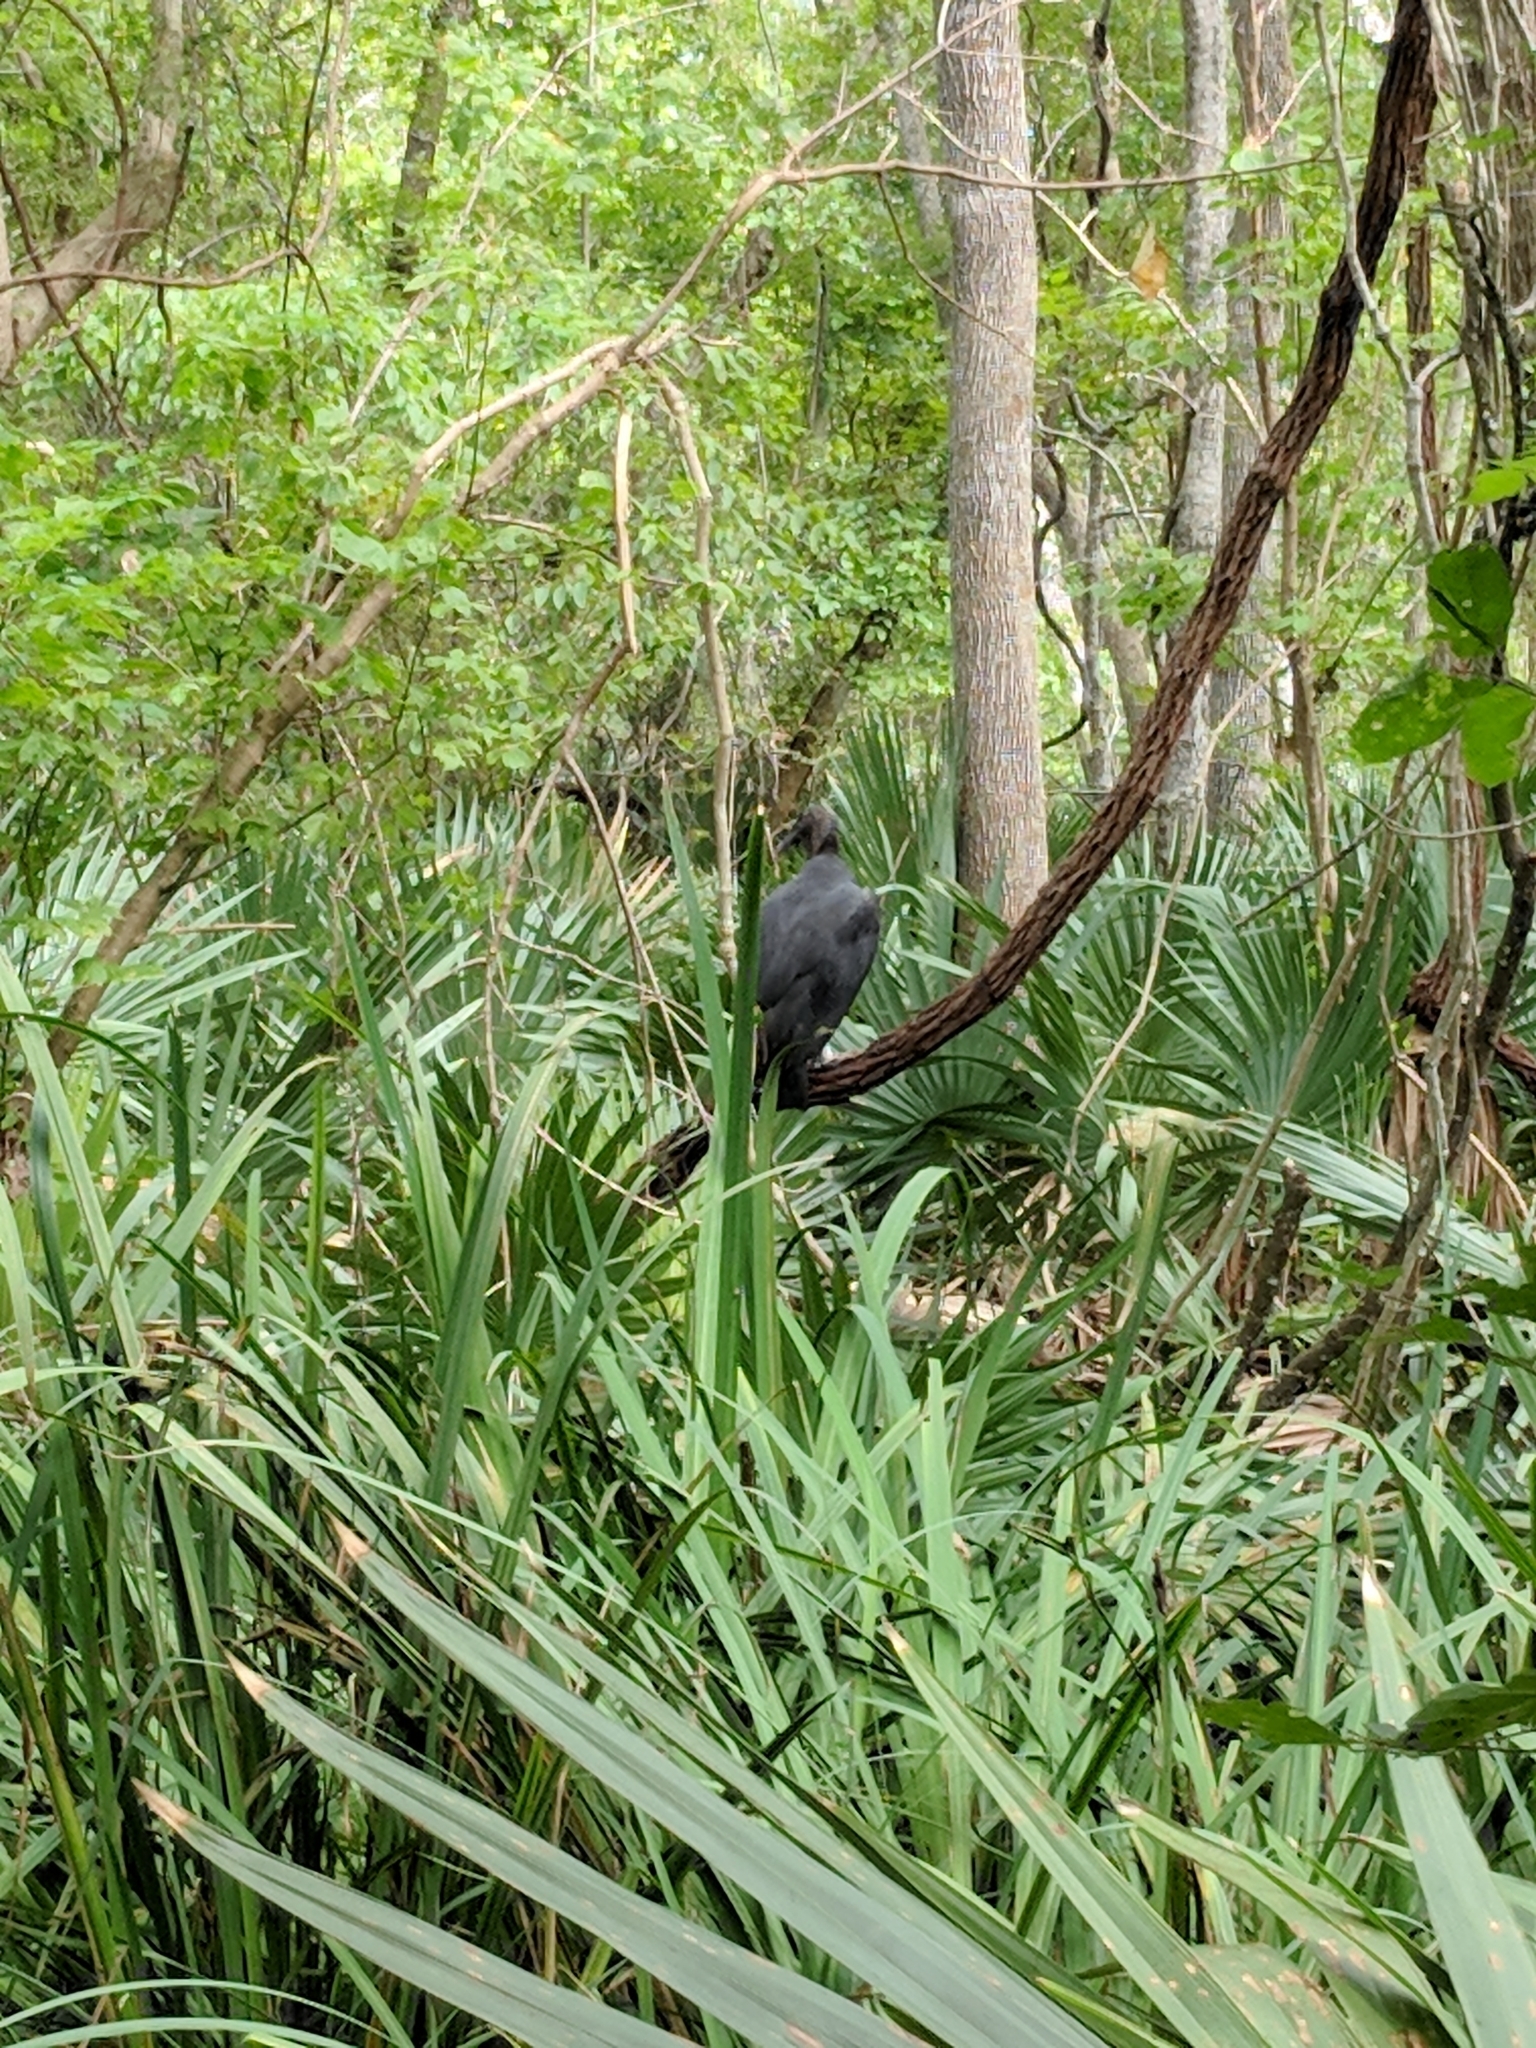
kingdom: Plantae
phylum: Tracheophyta
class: Liliopsida
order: Arecales
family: Arecaceae
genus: Sabal
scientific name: Sabal minor
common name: Dwarf palmetto
